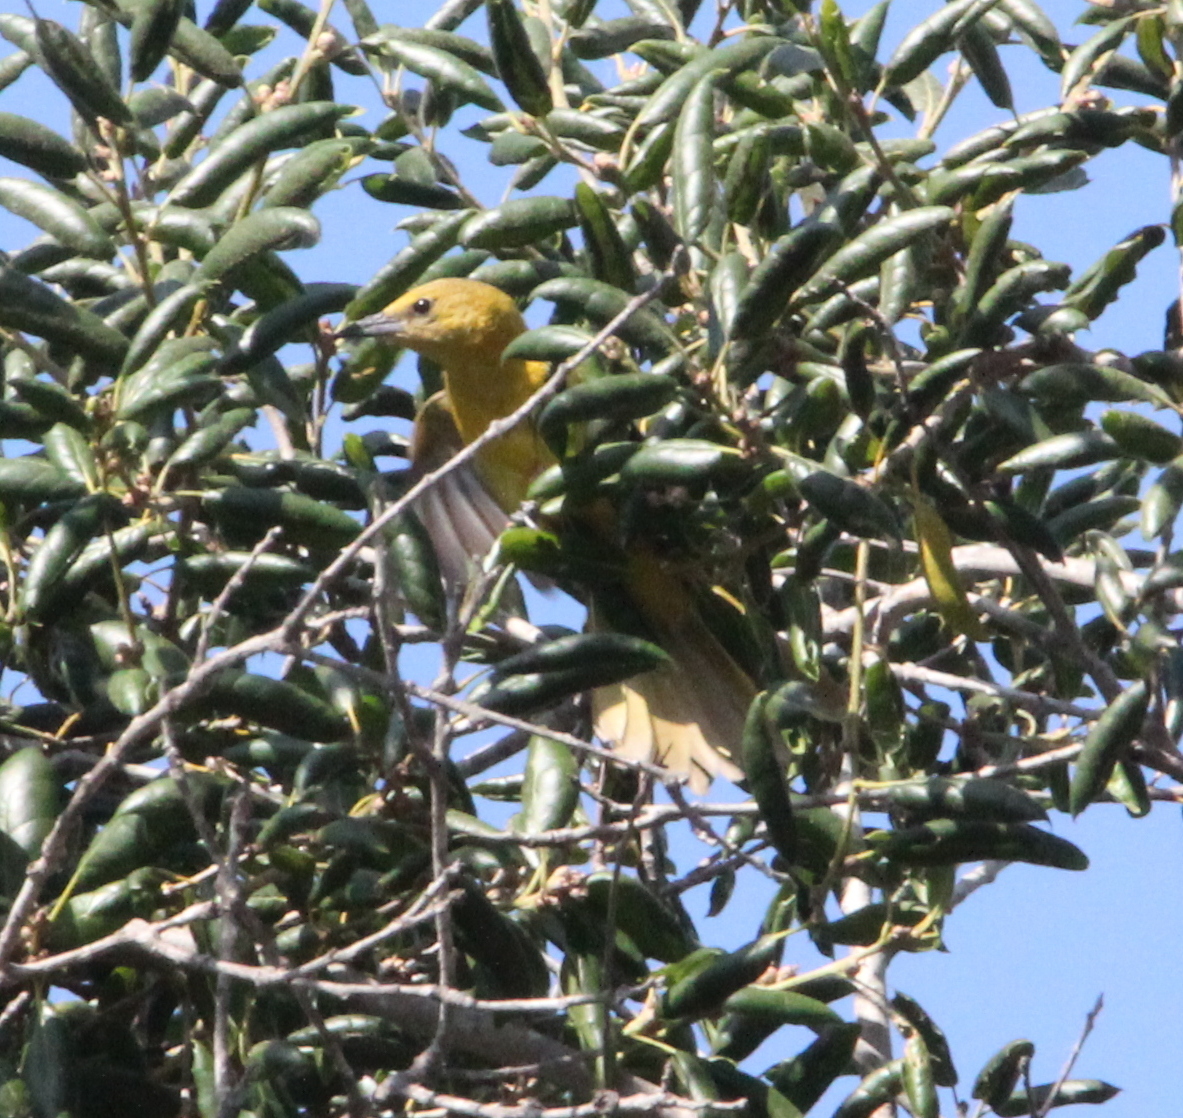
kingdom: Animalia
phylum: Chordata
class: Aves
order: Passeriformes
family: Icteridae
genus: Icterus
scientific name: Icterus cucullatus
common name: Hooded oriole
